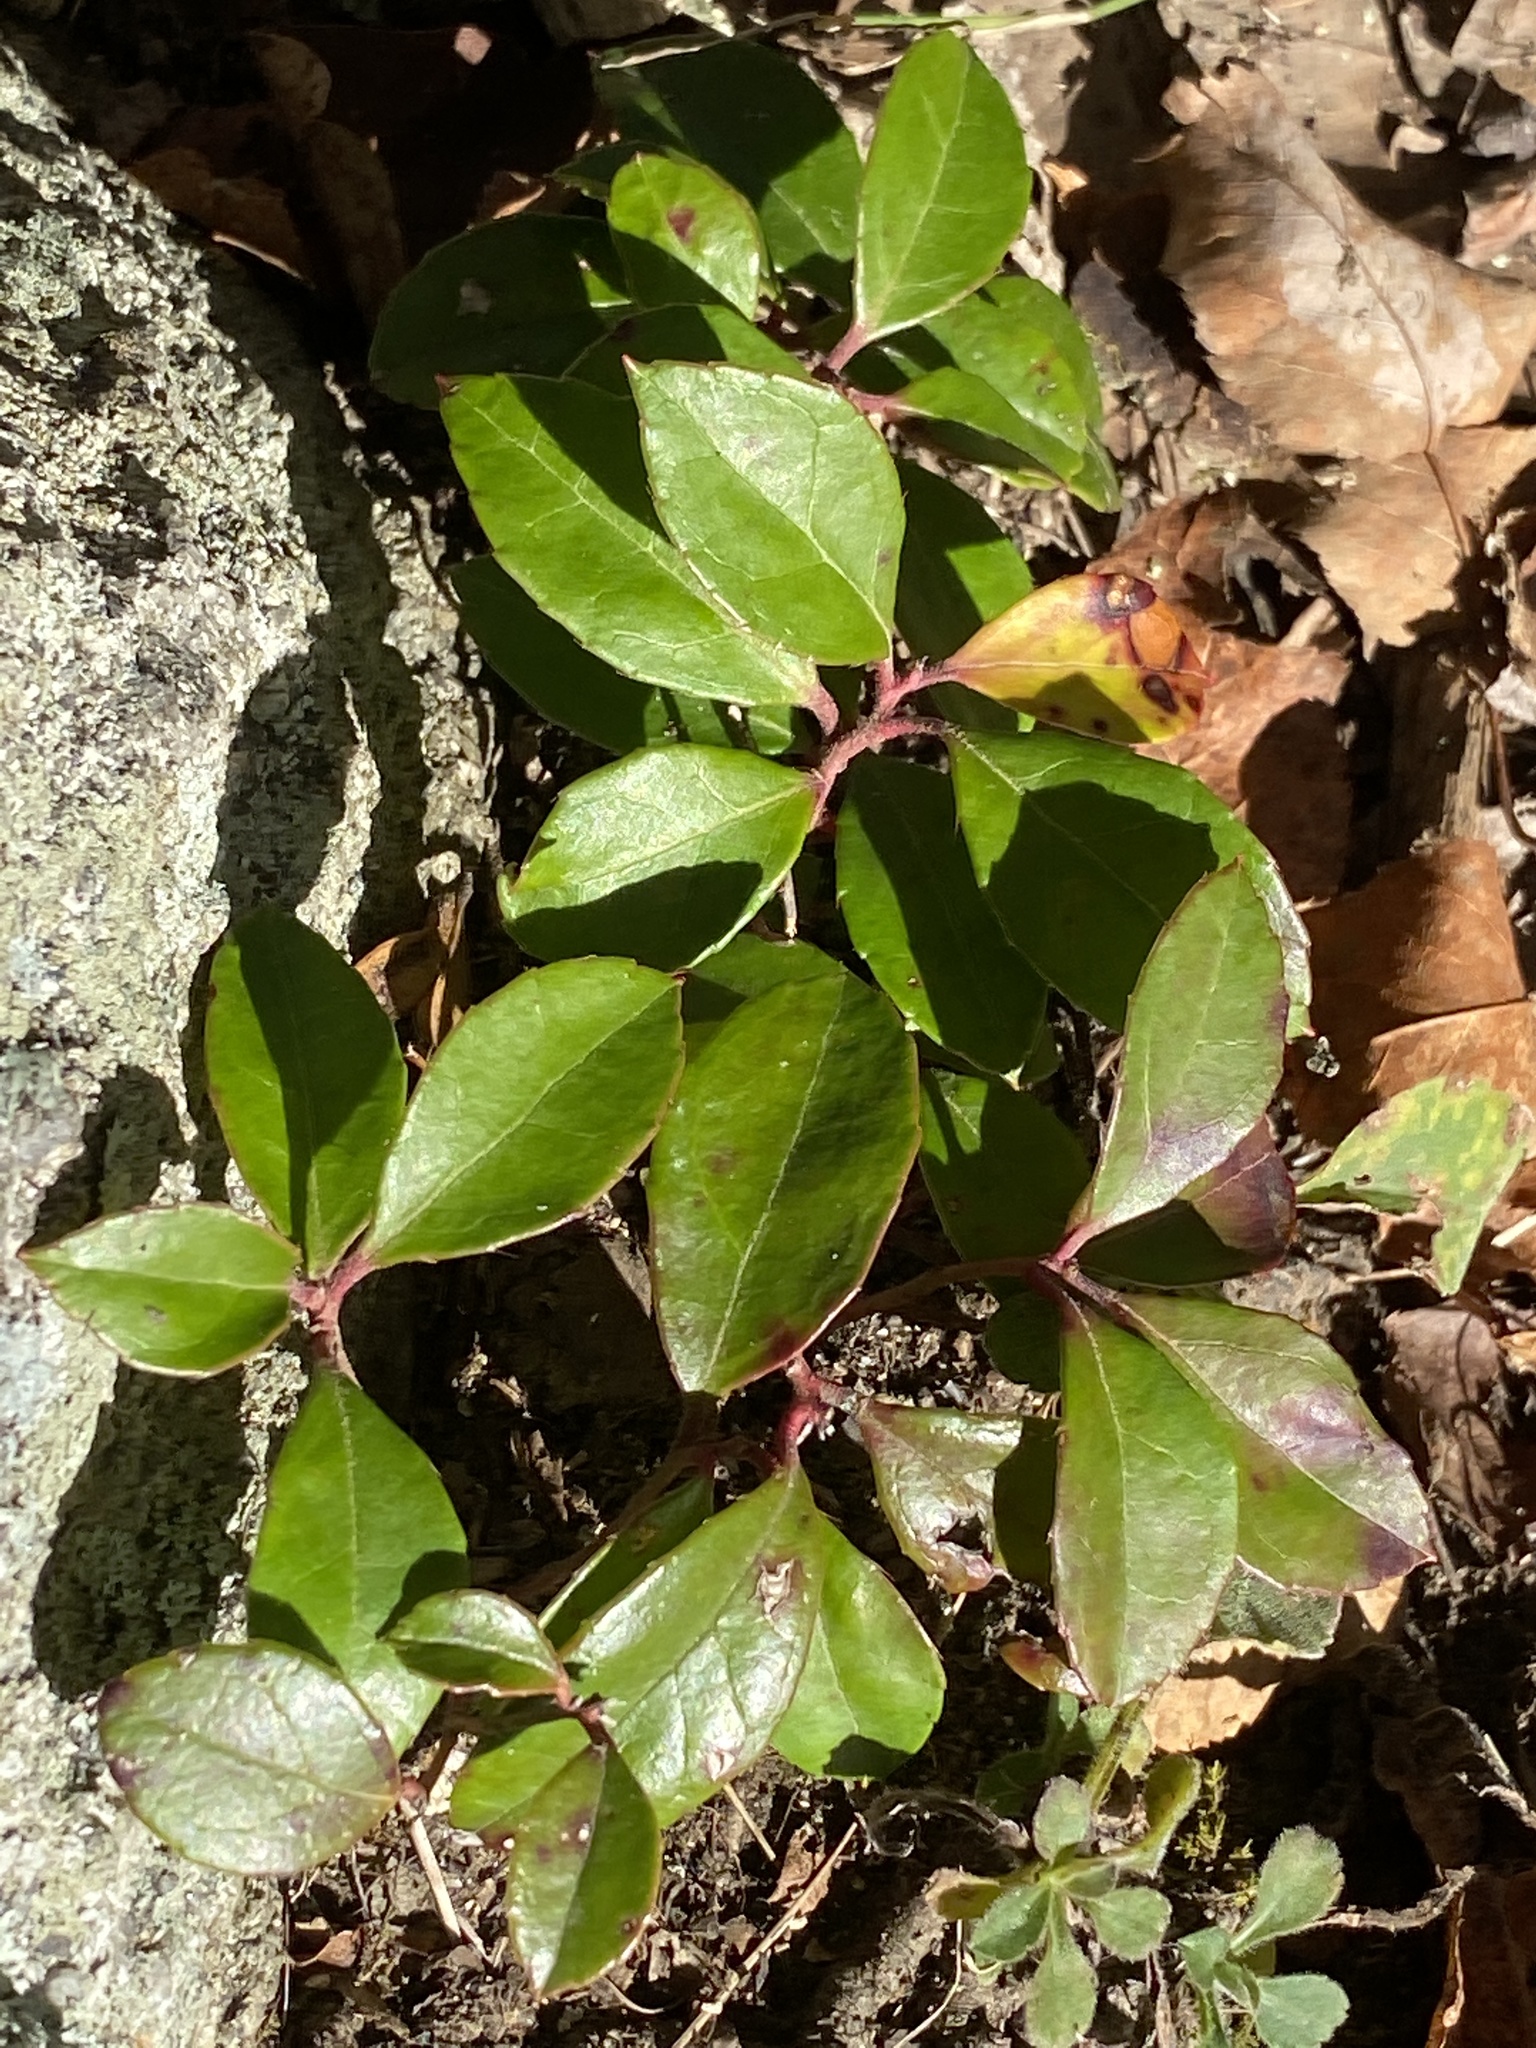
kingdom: Plantae
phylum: Tracheophyta
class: Magnoliopsida
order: Ericales
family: Ericaceae
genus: Gaultheria
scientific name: Gaultheria procumbens
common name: Checkerberry
